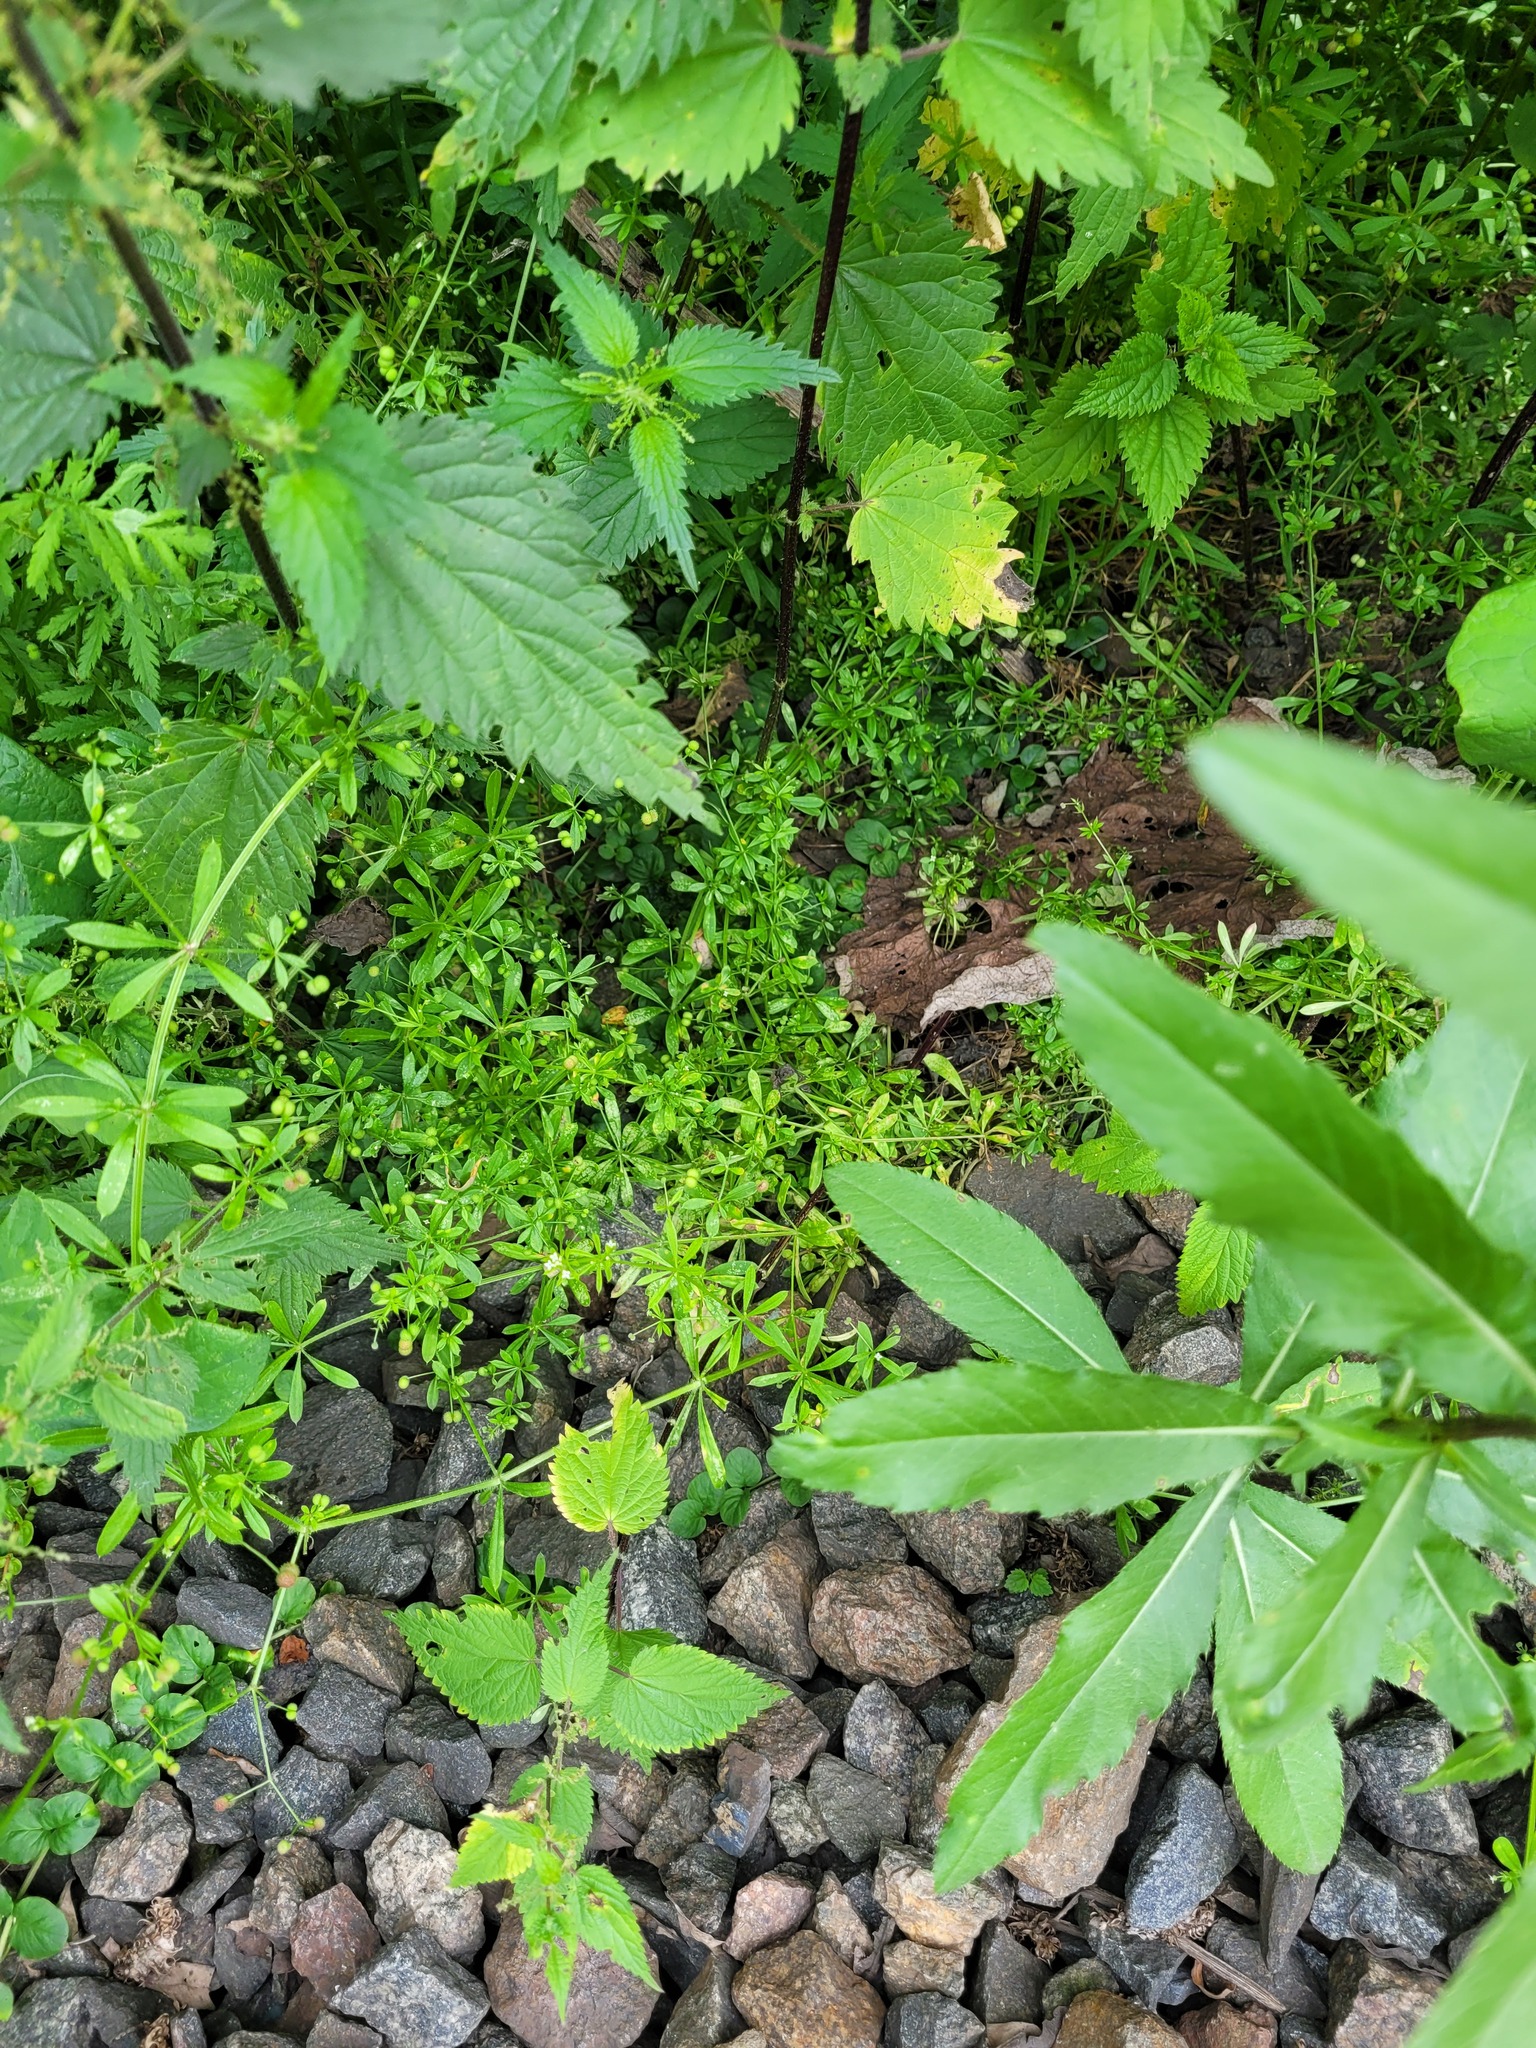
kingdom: Plantae
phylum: Tracheophyta
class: Magnoliopsida
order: Gentianales
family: Rubiaceae
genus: Galium
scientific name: Galium aparine
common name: Cleavers
